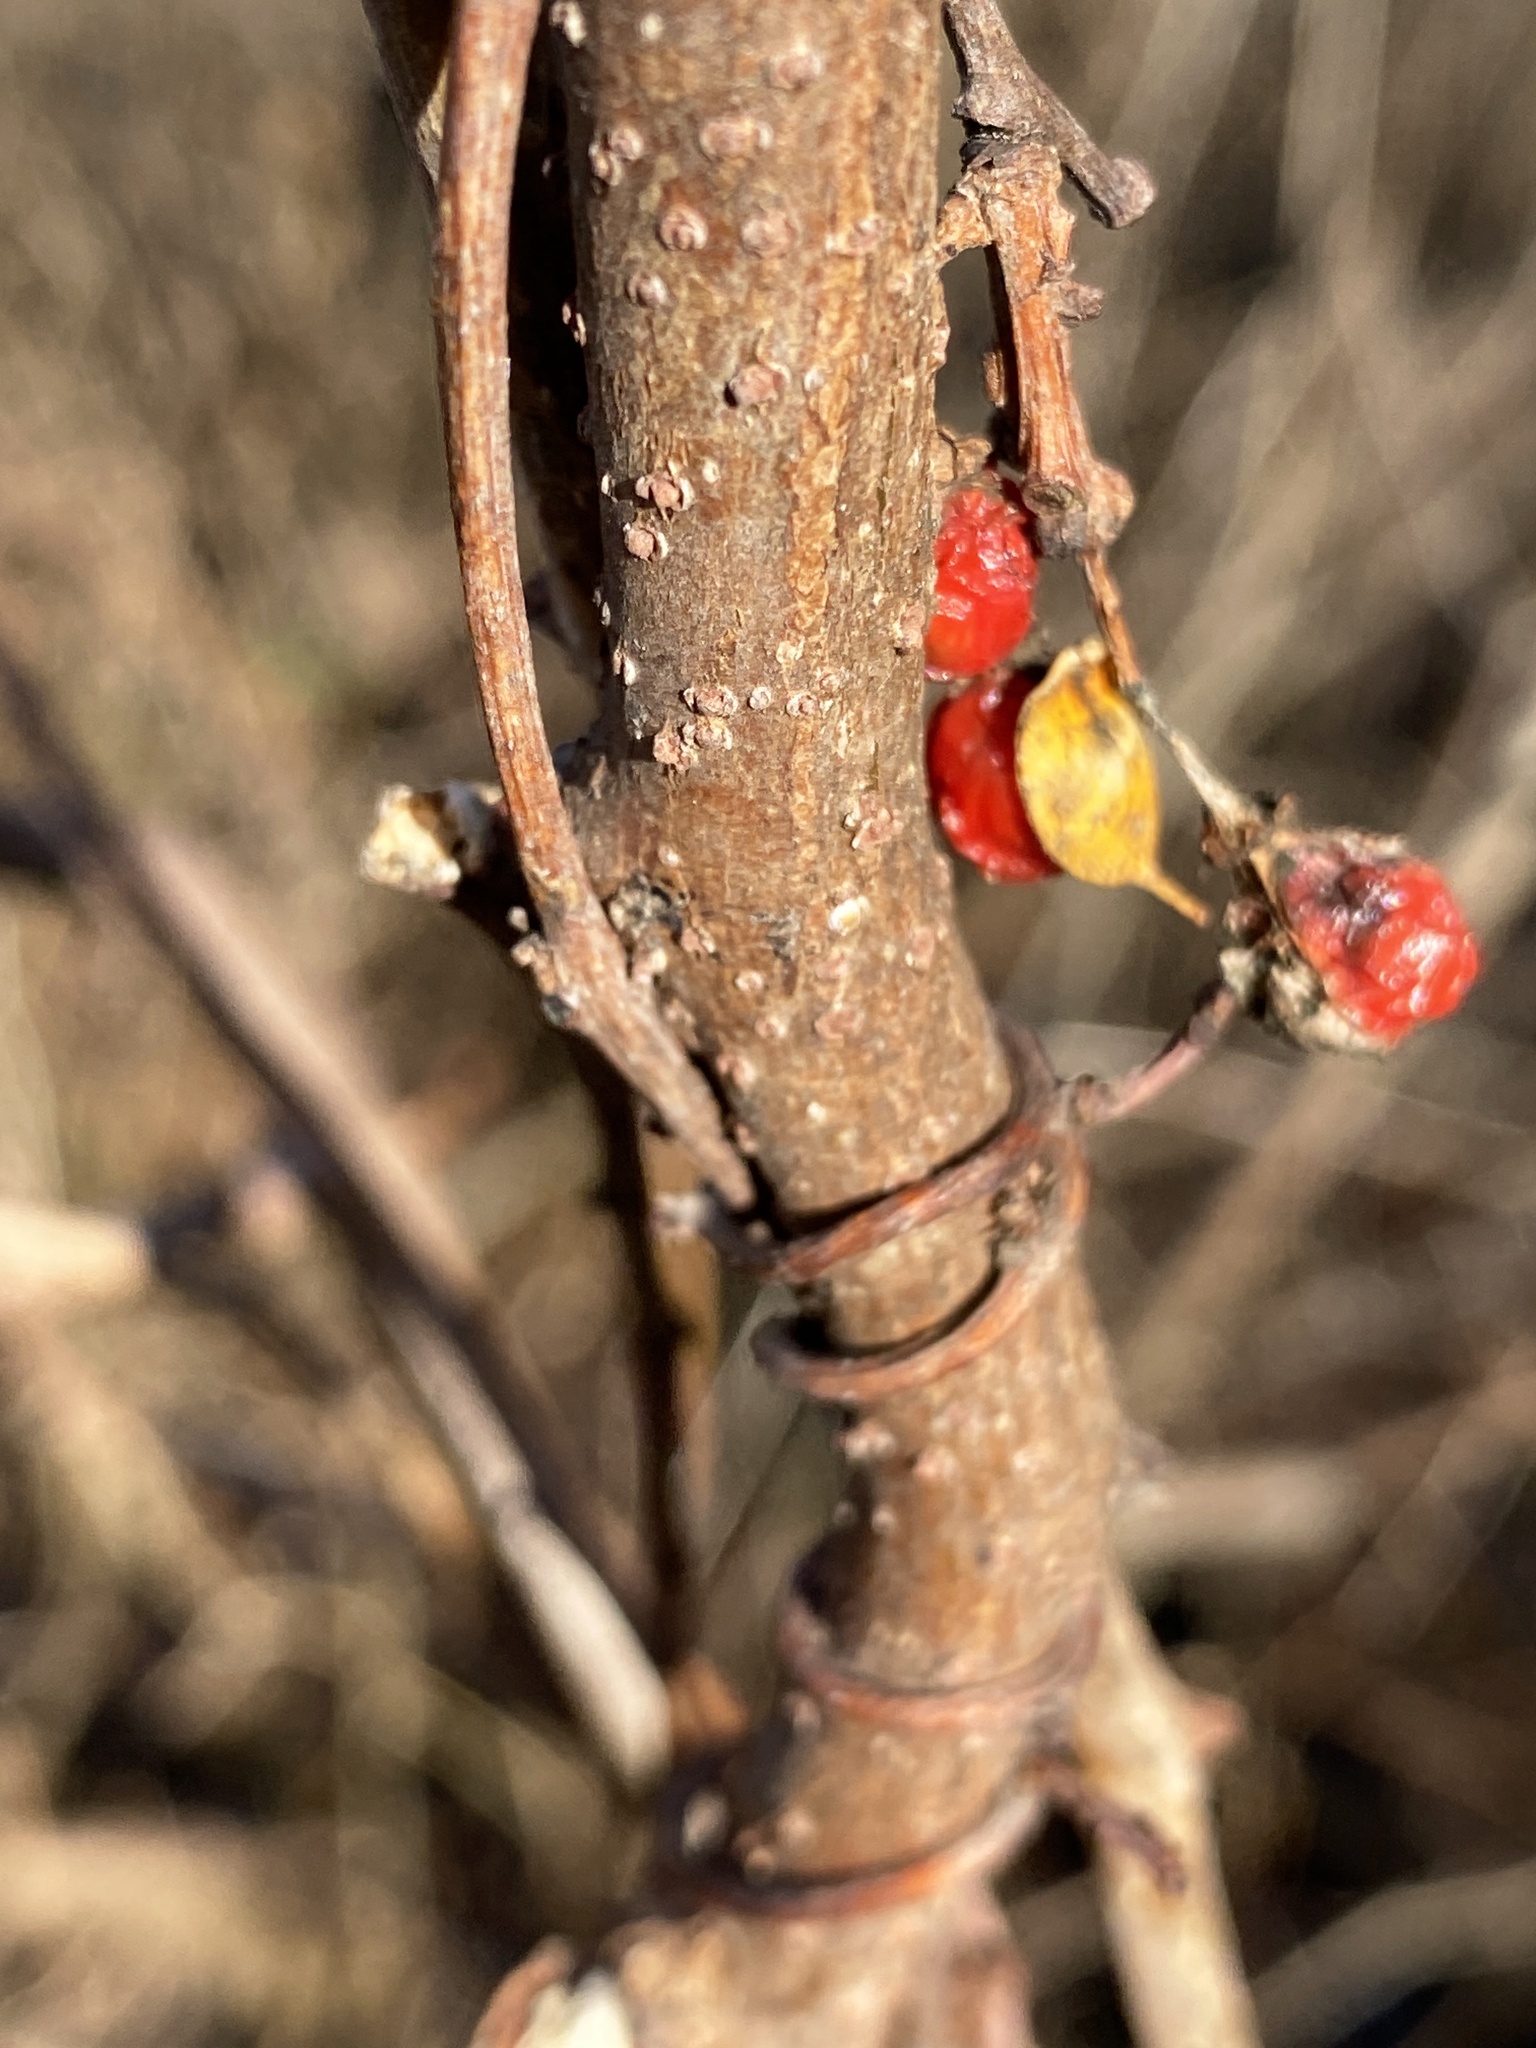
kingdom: Plantae
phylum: Tracheophyta
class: Magnoliopsida
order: Celastrales
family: Celastraceae
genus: Celastrus
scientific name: Celastrus orbiculatus
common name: Oriental bittersweet
